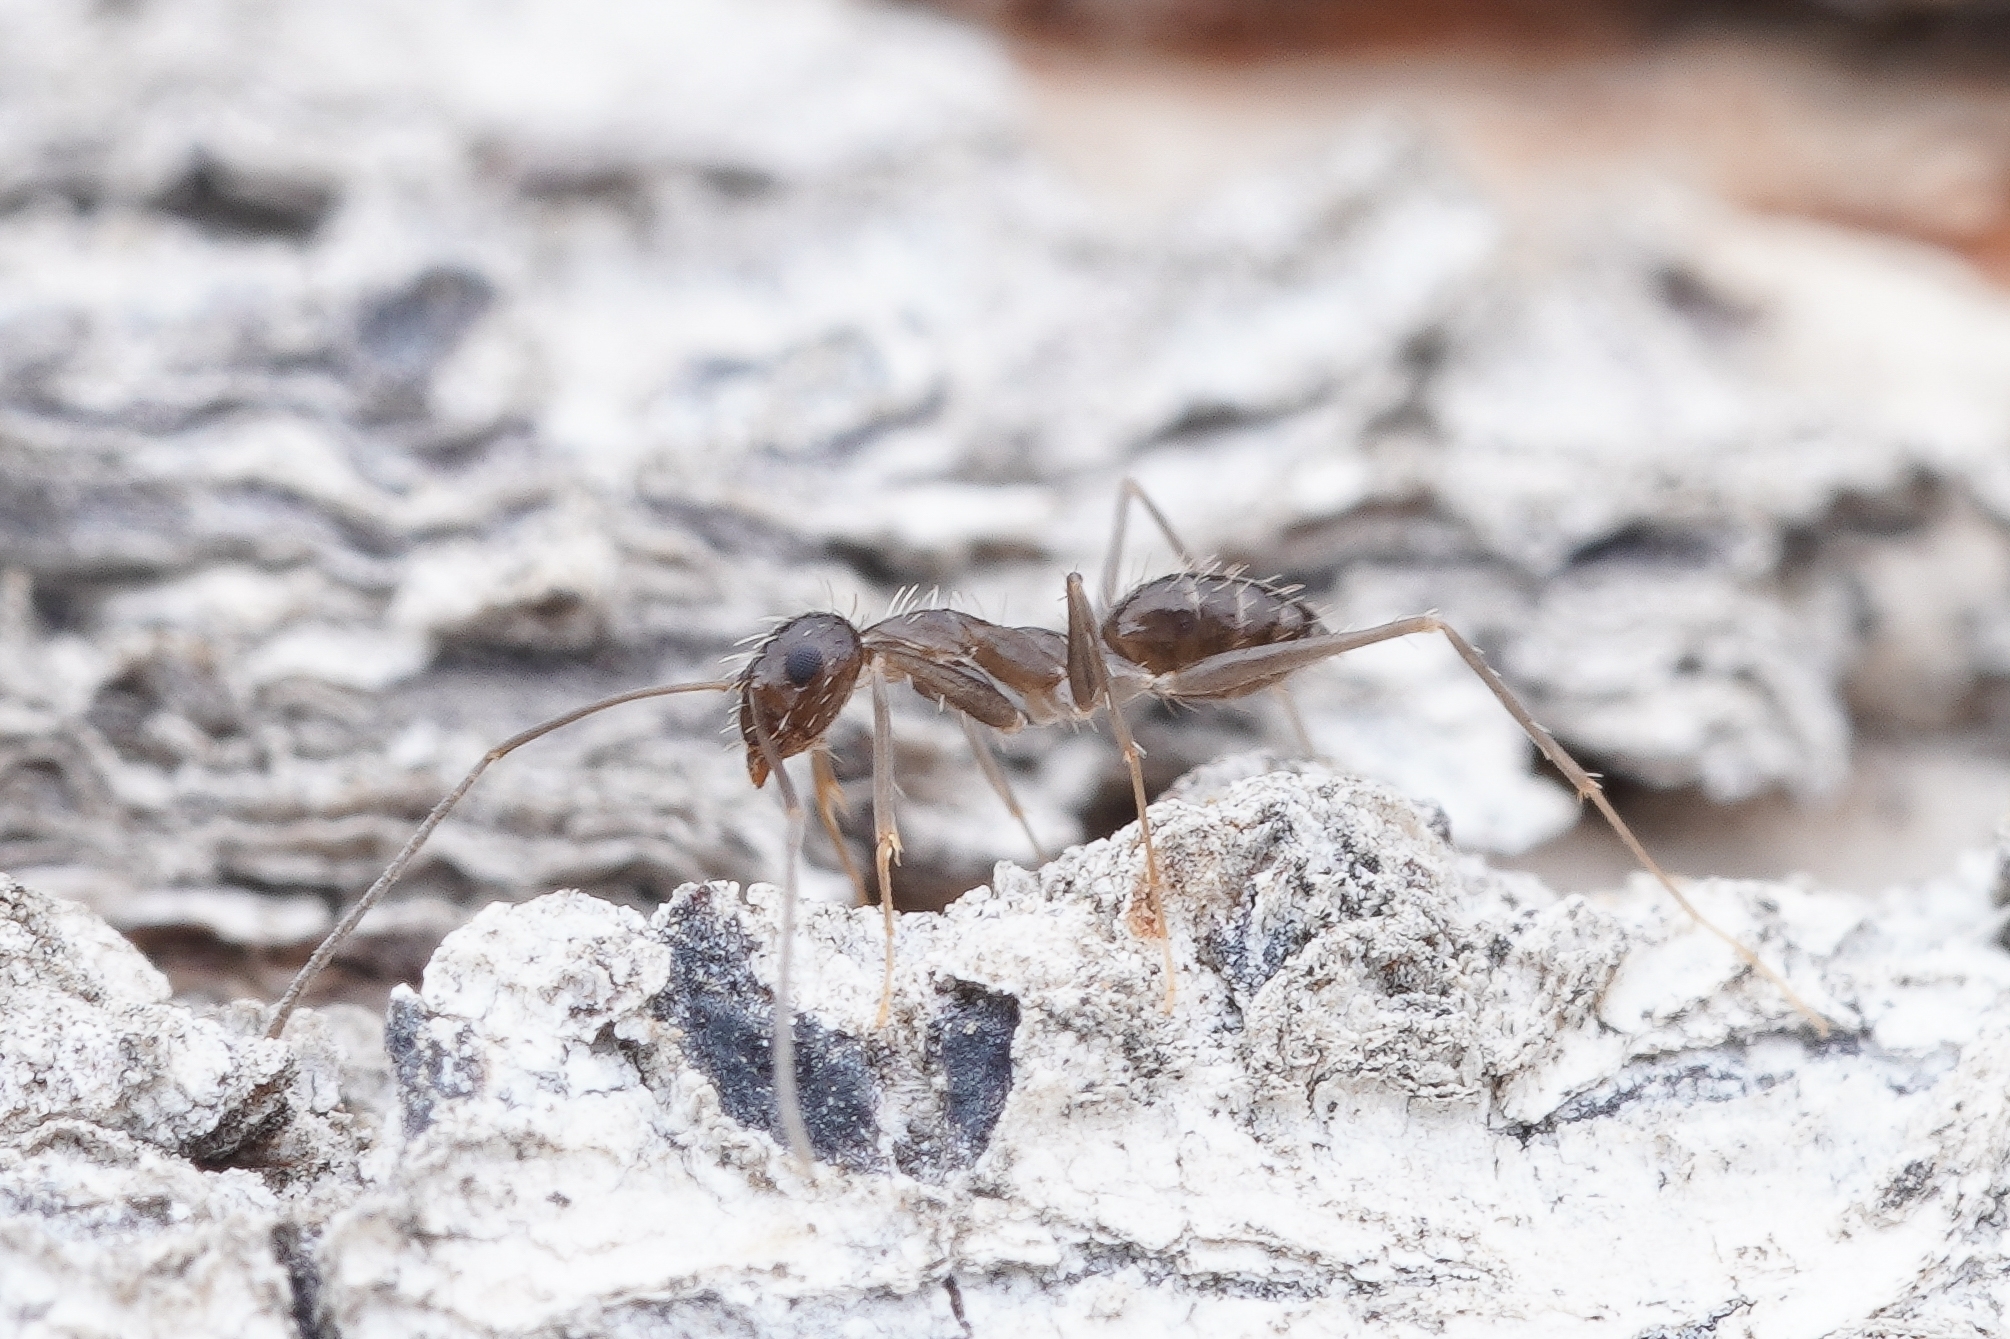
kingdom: Animalia
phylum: Arthropoda
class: Insecta
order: Hymenoptera
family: Formicidae
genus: Paratrechina
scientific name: Paratrechina longicornis
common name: Longhorned crazy ant
